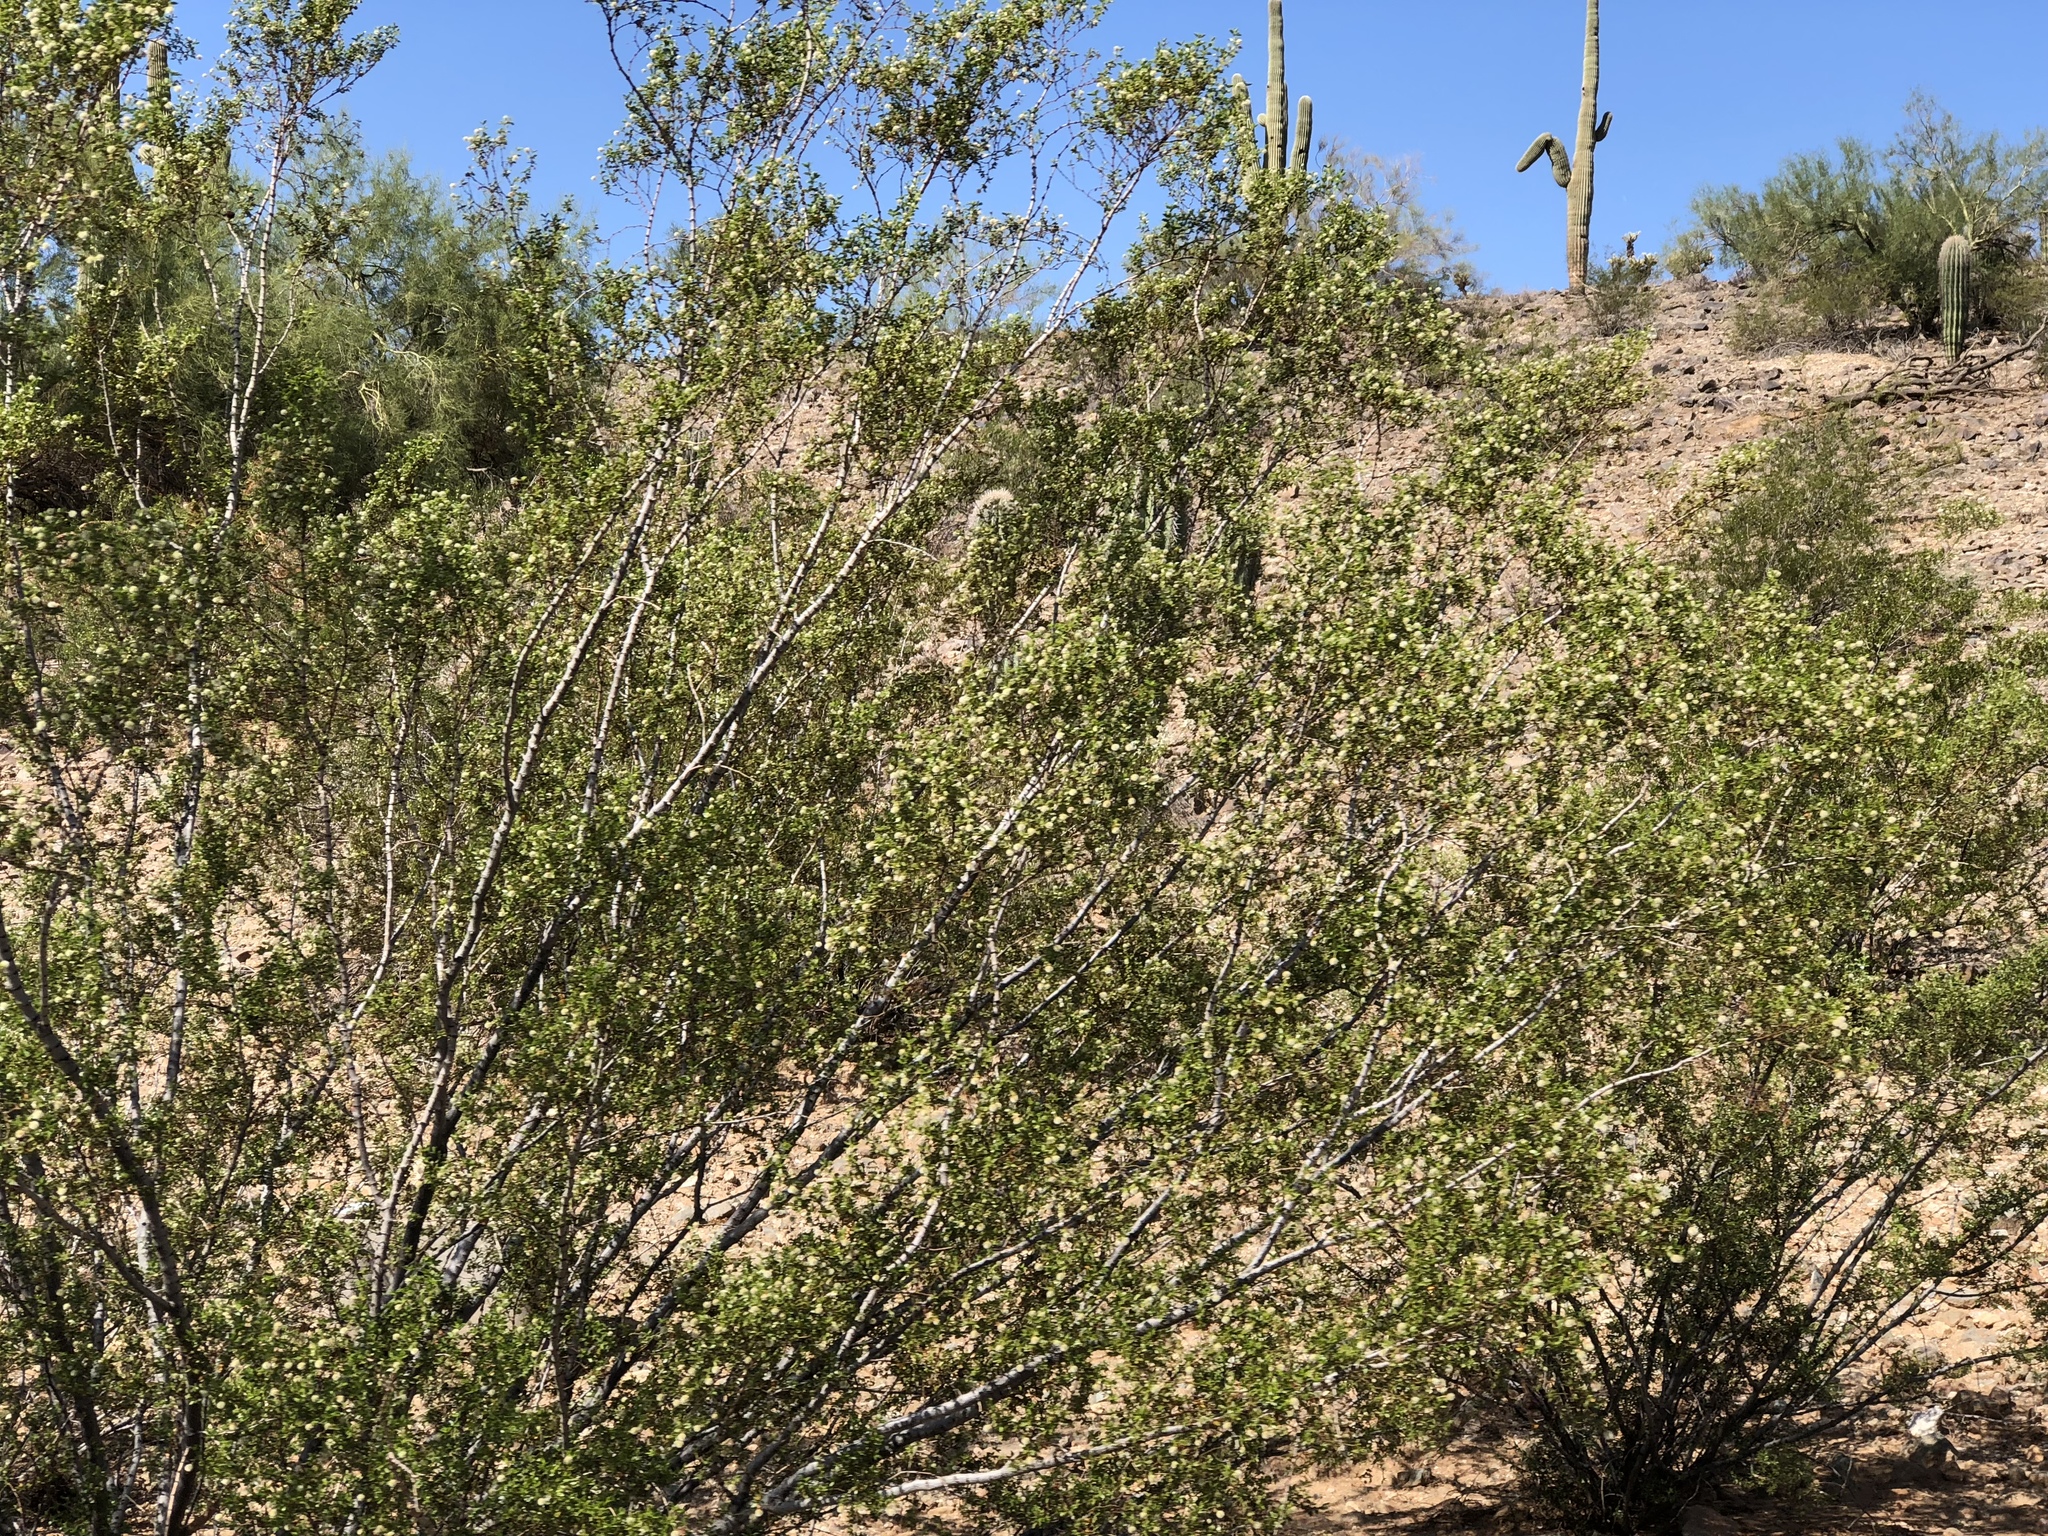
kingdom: Plantae
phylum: Tracheophyta
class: Magnoliopsida
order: Zygophyllales
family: Zygophyllaceae
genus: Larrea
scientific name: Larrea tridentata
